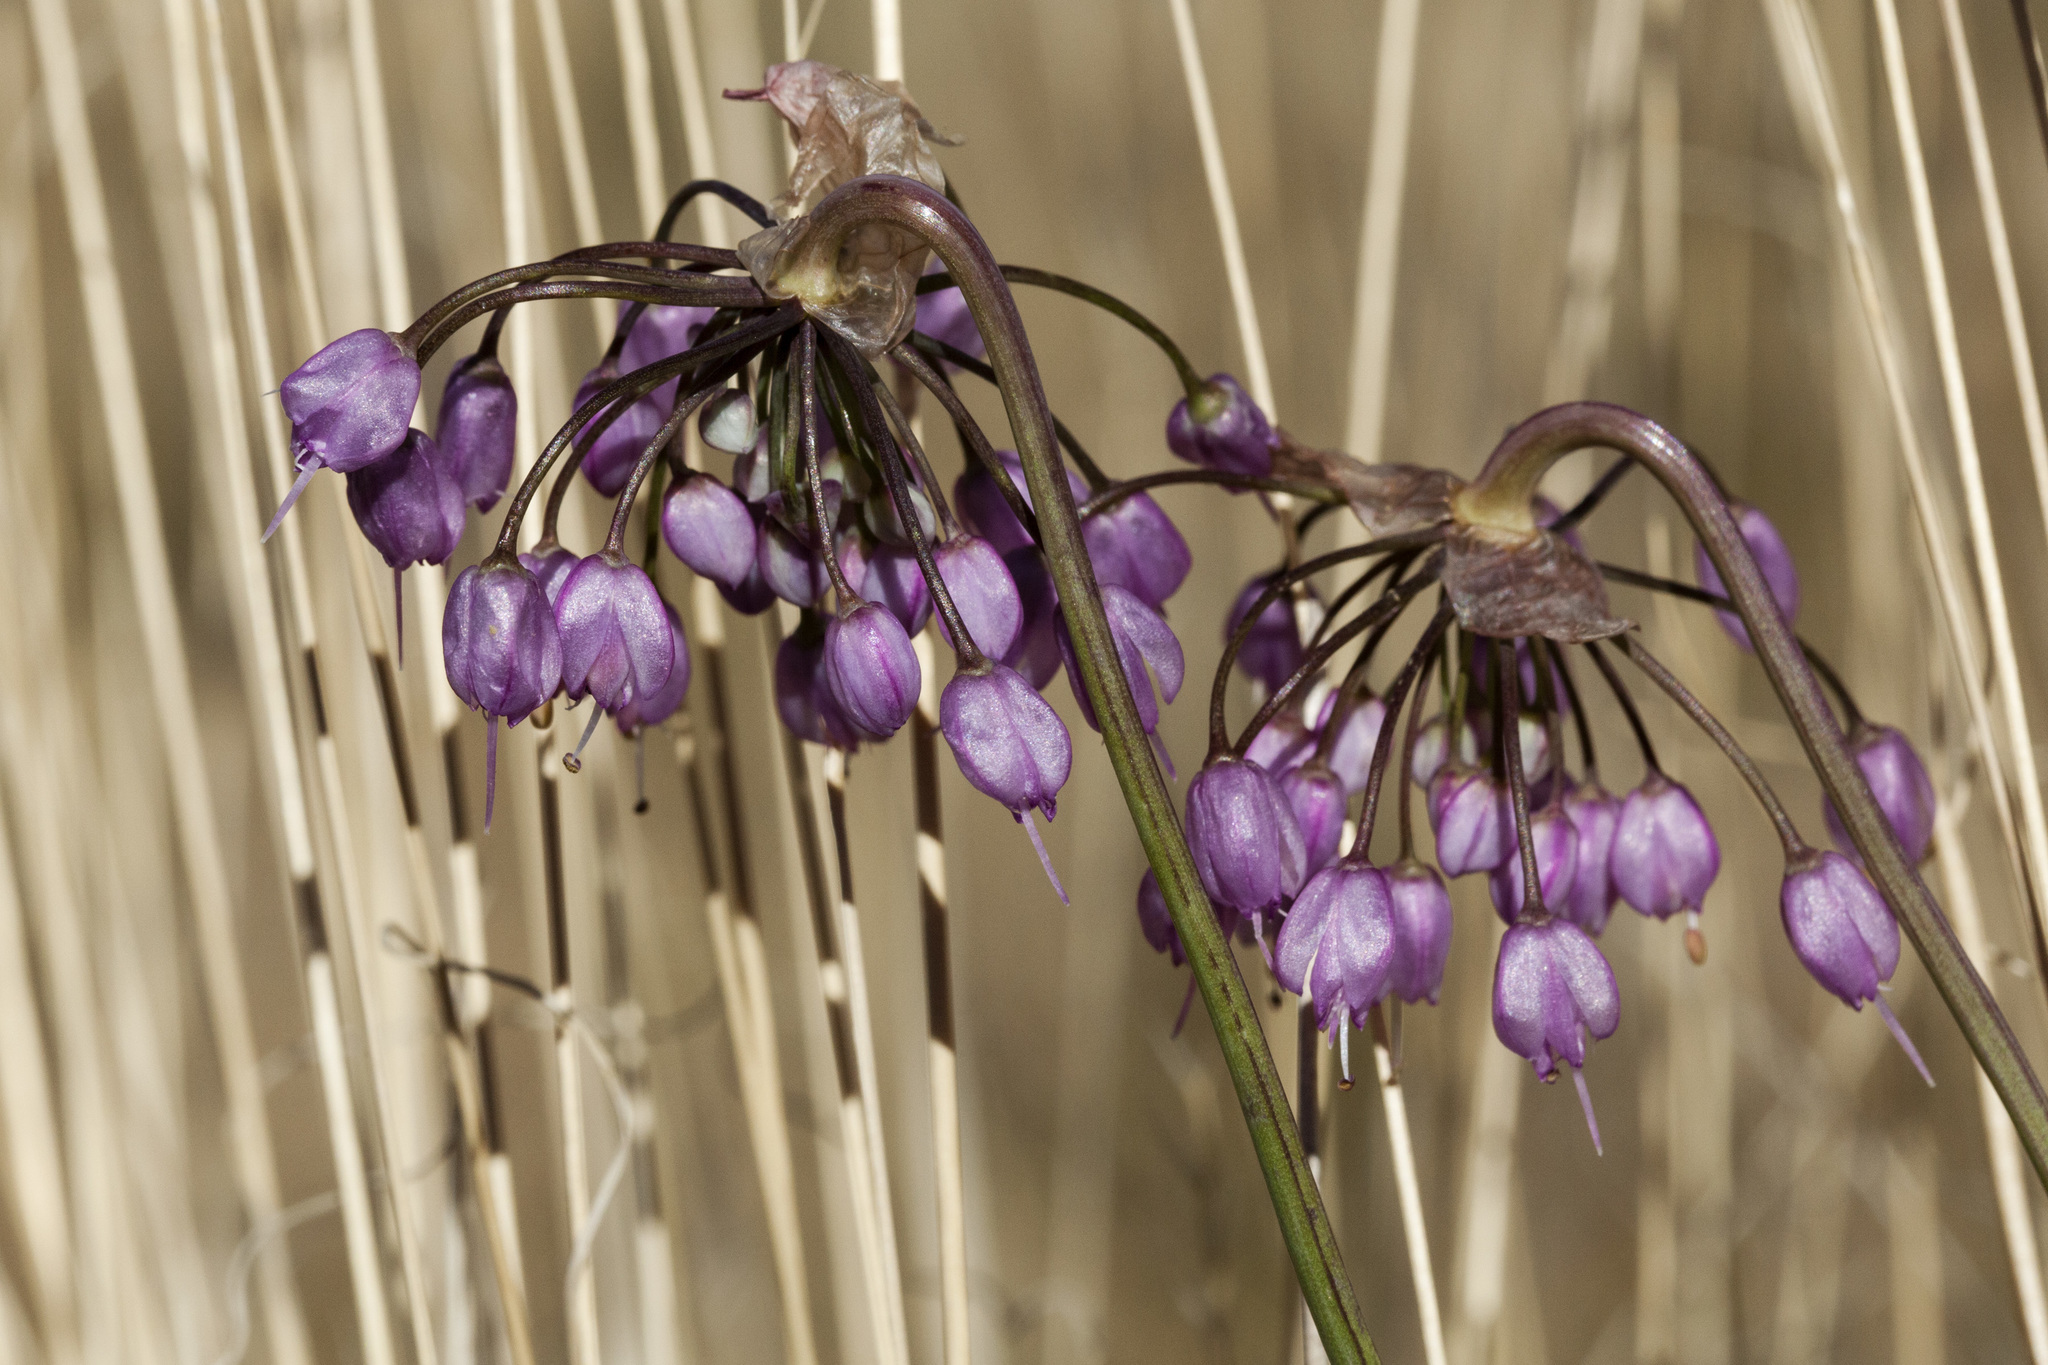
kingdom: Plantae
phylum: Tracheophyta
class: Liliopsida
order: Asparagales
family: Amaryllidaceae
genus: Allium
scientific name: Allium cernuum
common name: Nodding onion
